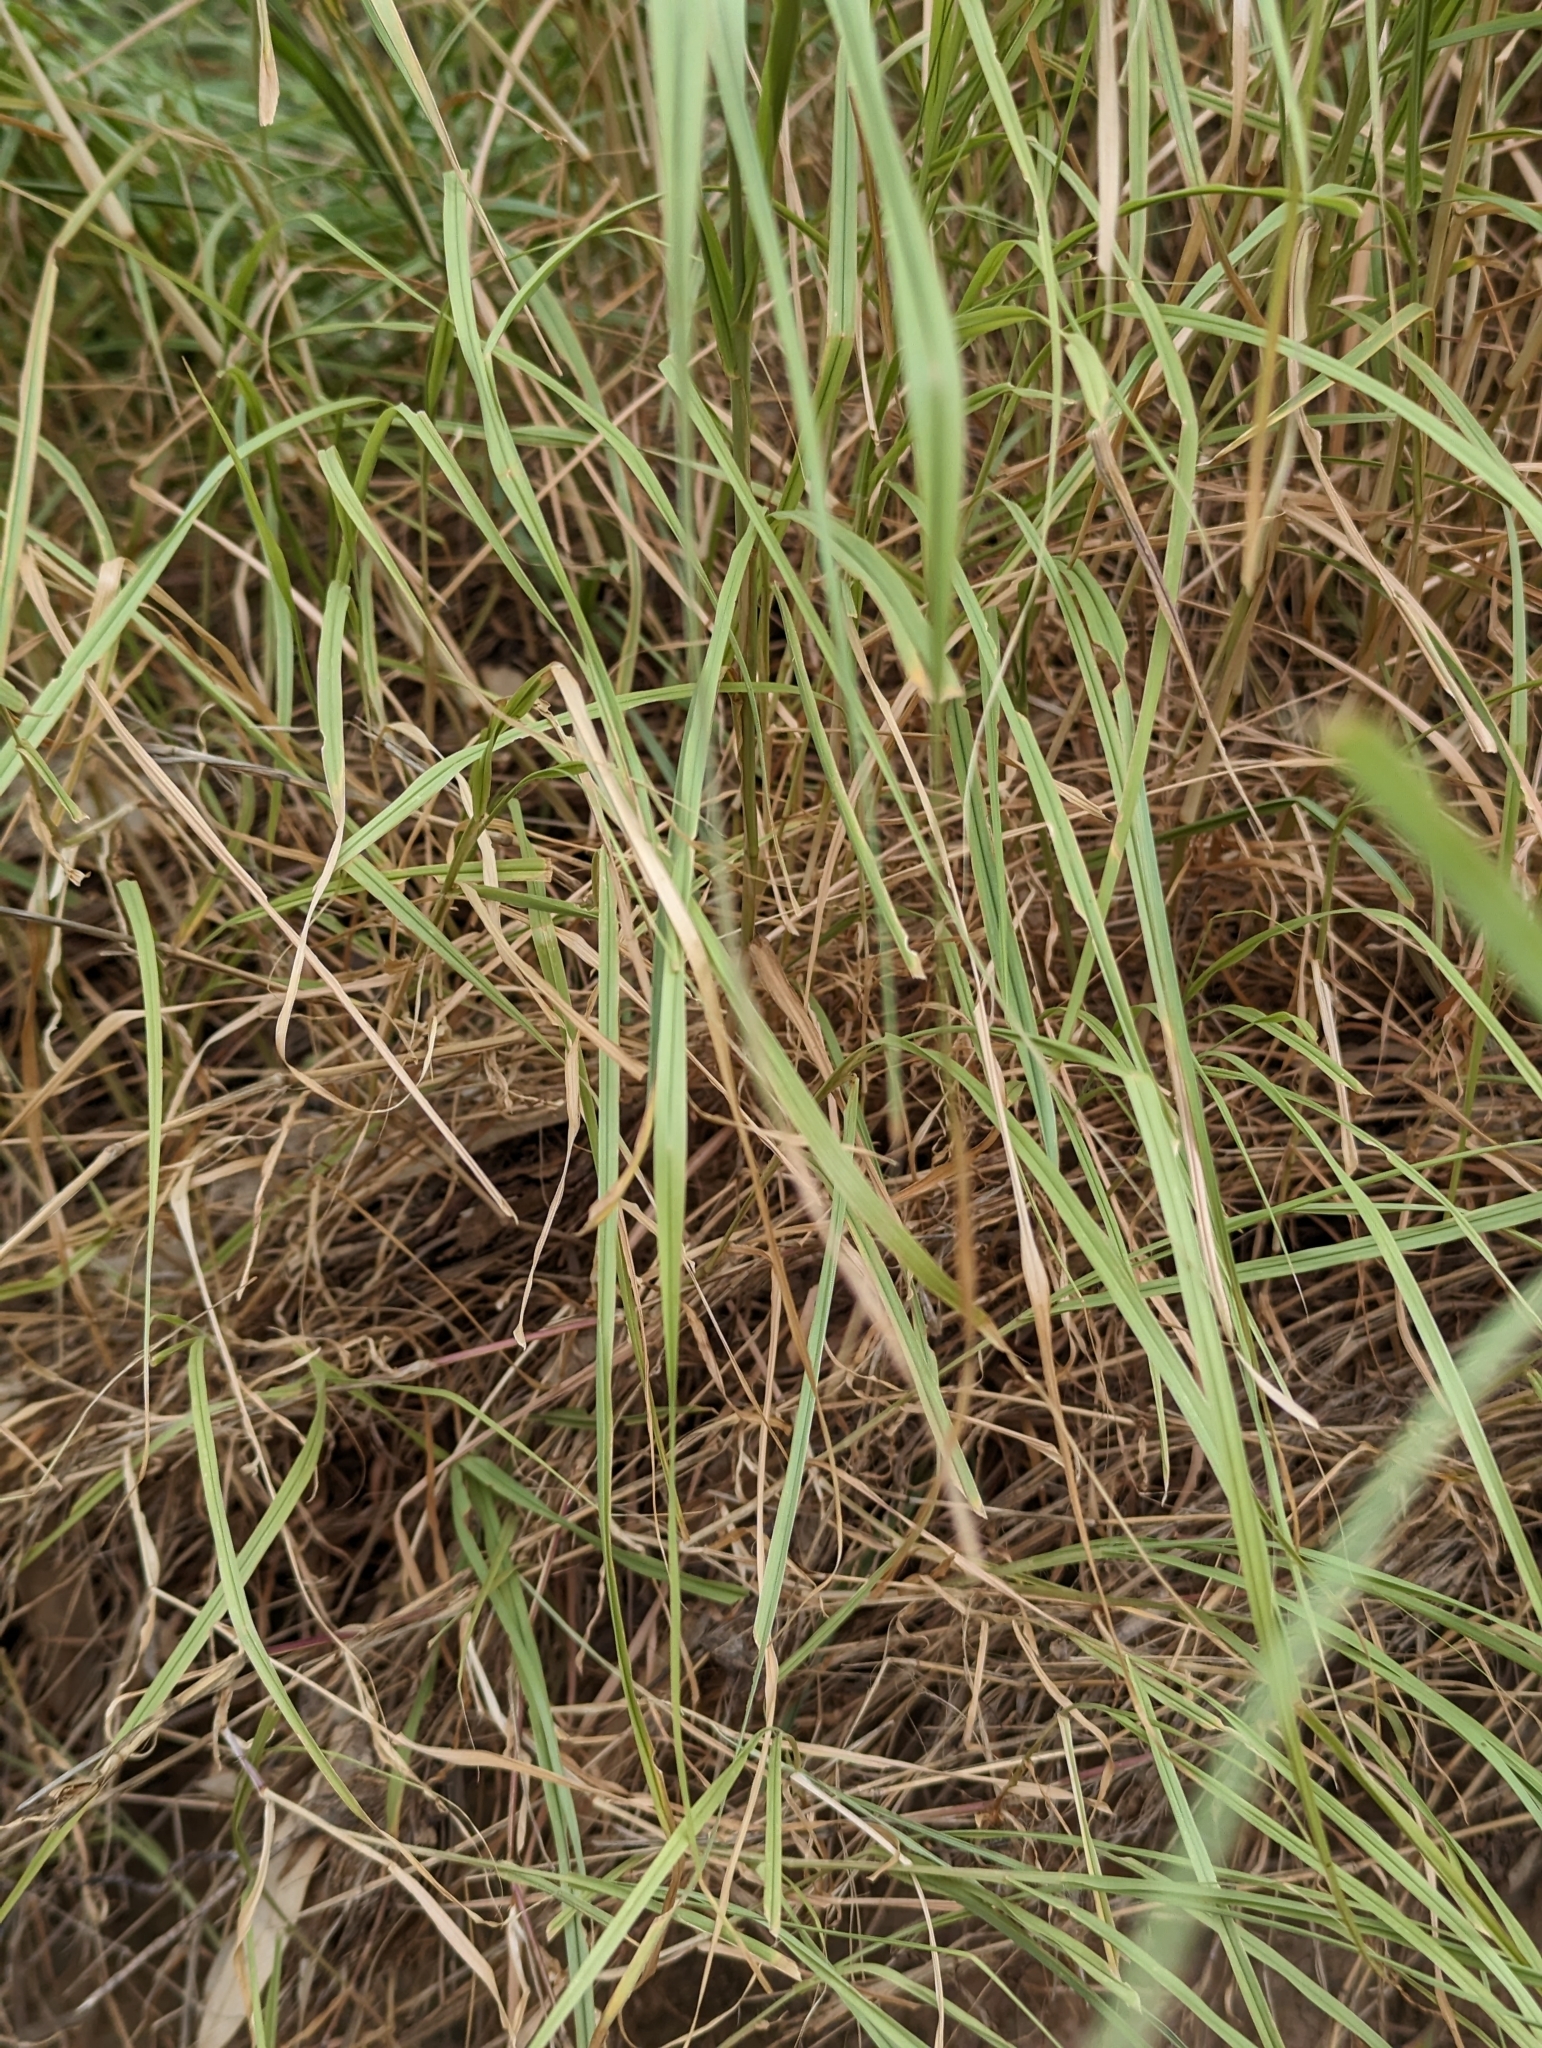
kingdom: Plantae
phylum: Tracheophyta
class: Liliopsida
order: Poales
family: Poaceae
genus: Cenchrus
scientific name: Cenchrus ciliaris
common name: Buffelgrass
